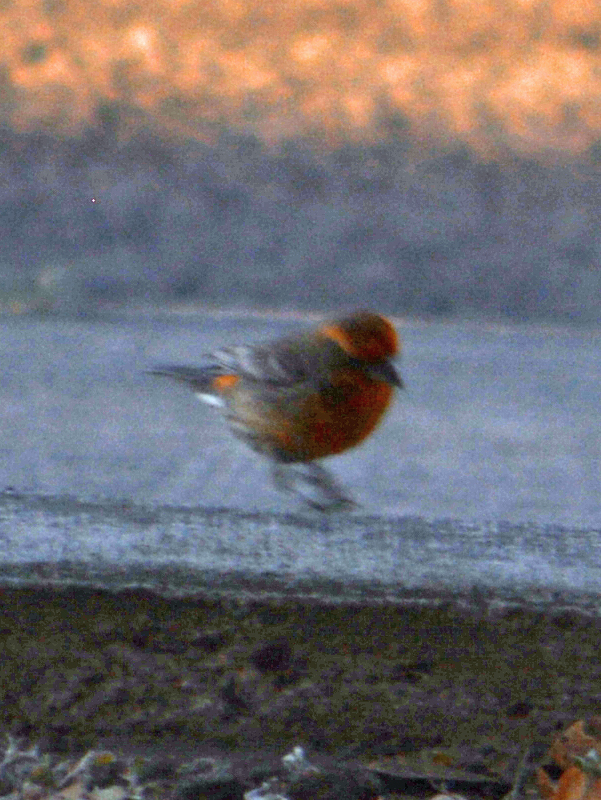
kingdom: Animalia
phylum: Chordata
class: Aves
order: Passeriformes
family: Fringillidae
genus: Haemorhous
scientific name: Haemorhous mexicanus
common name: House finch
